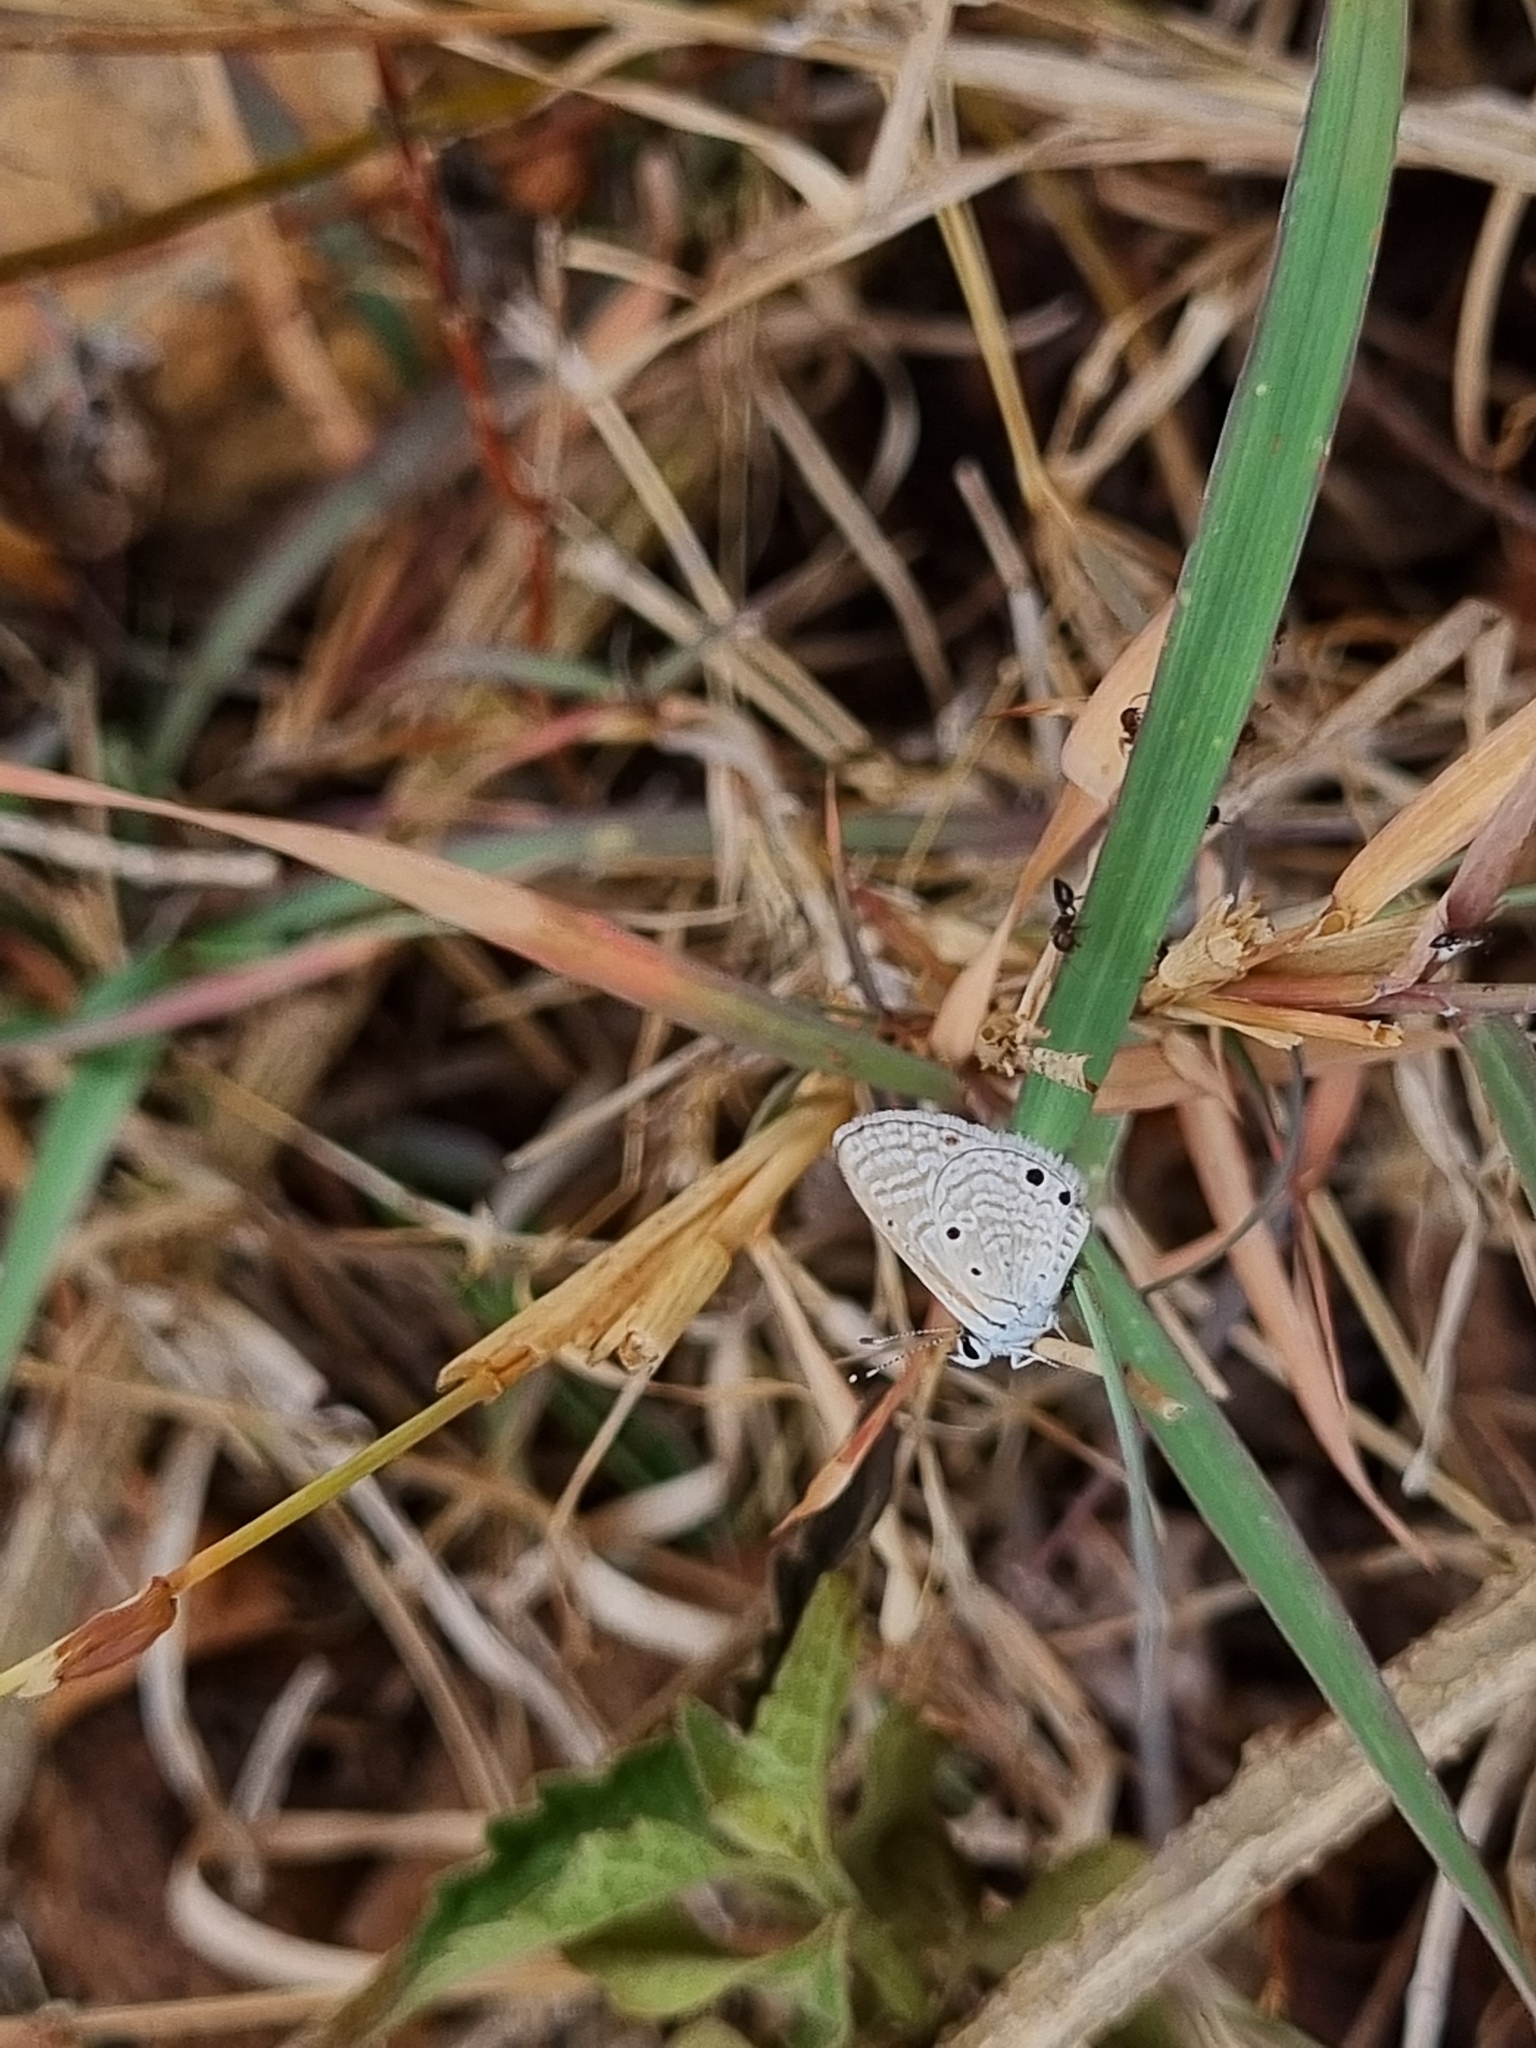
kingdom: Animalia
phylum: Arthropoda
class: Insecta
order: Lepidoptera
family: Lycaenidae
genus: Azanus
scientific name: Azanus ubaldus
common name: Desert babul blue
